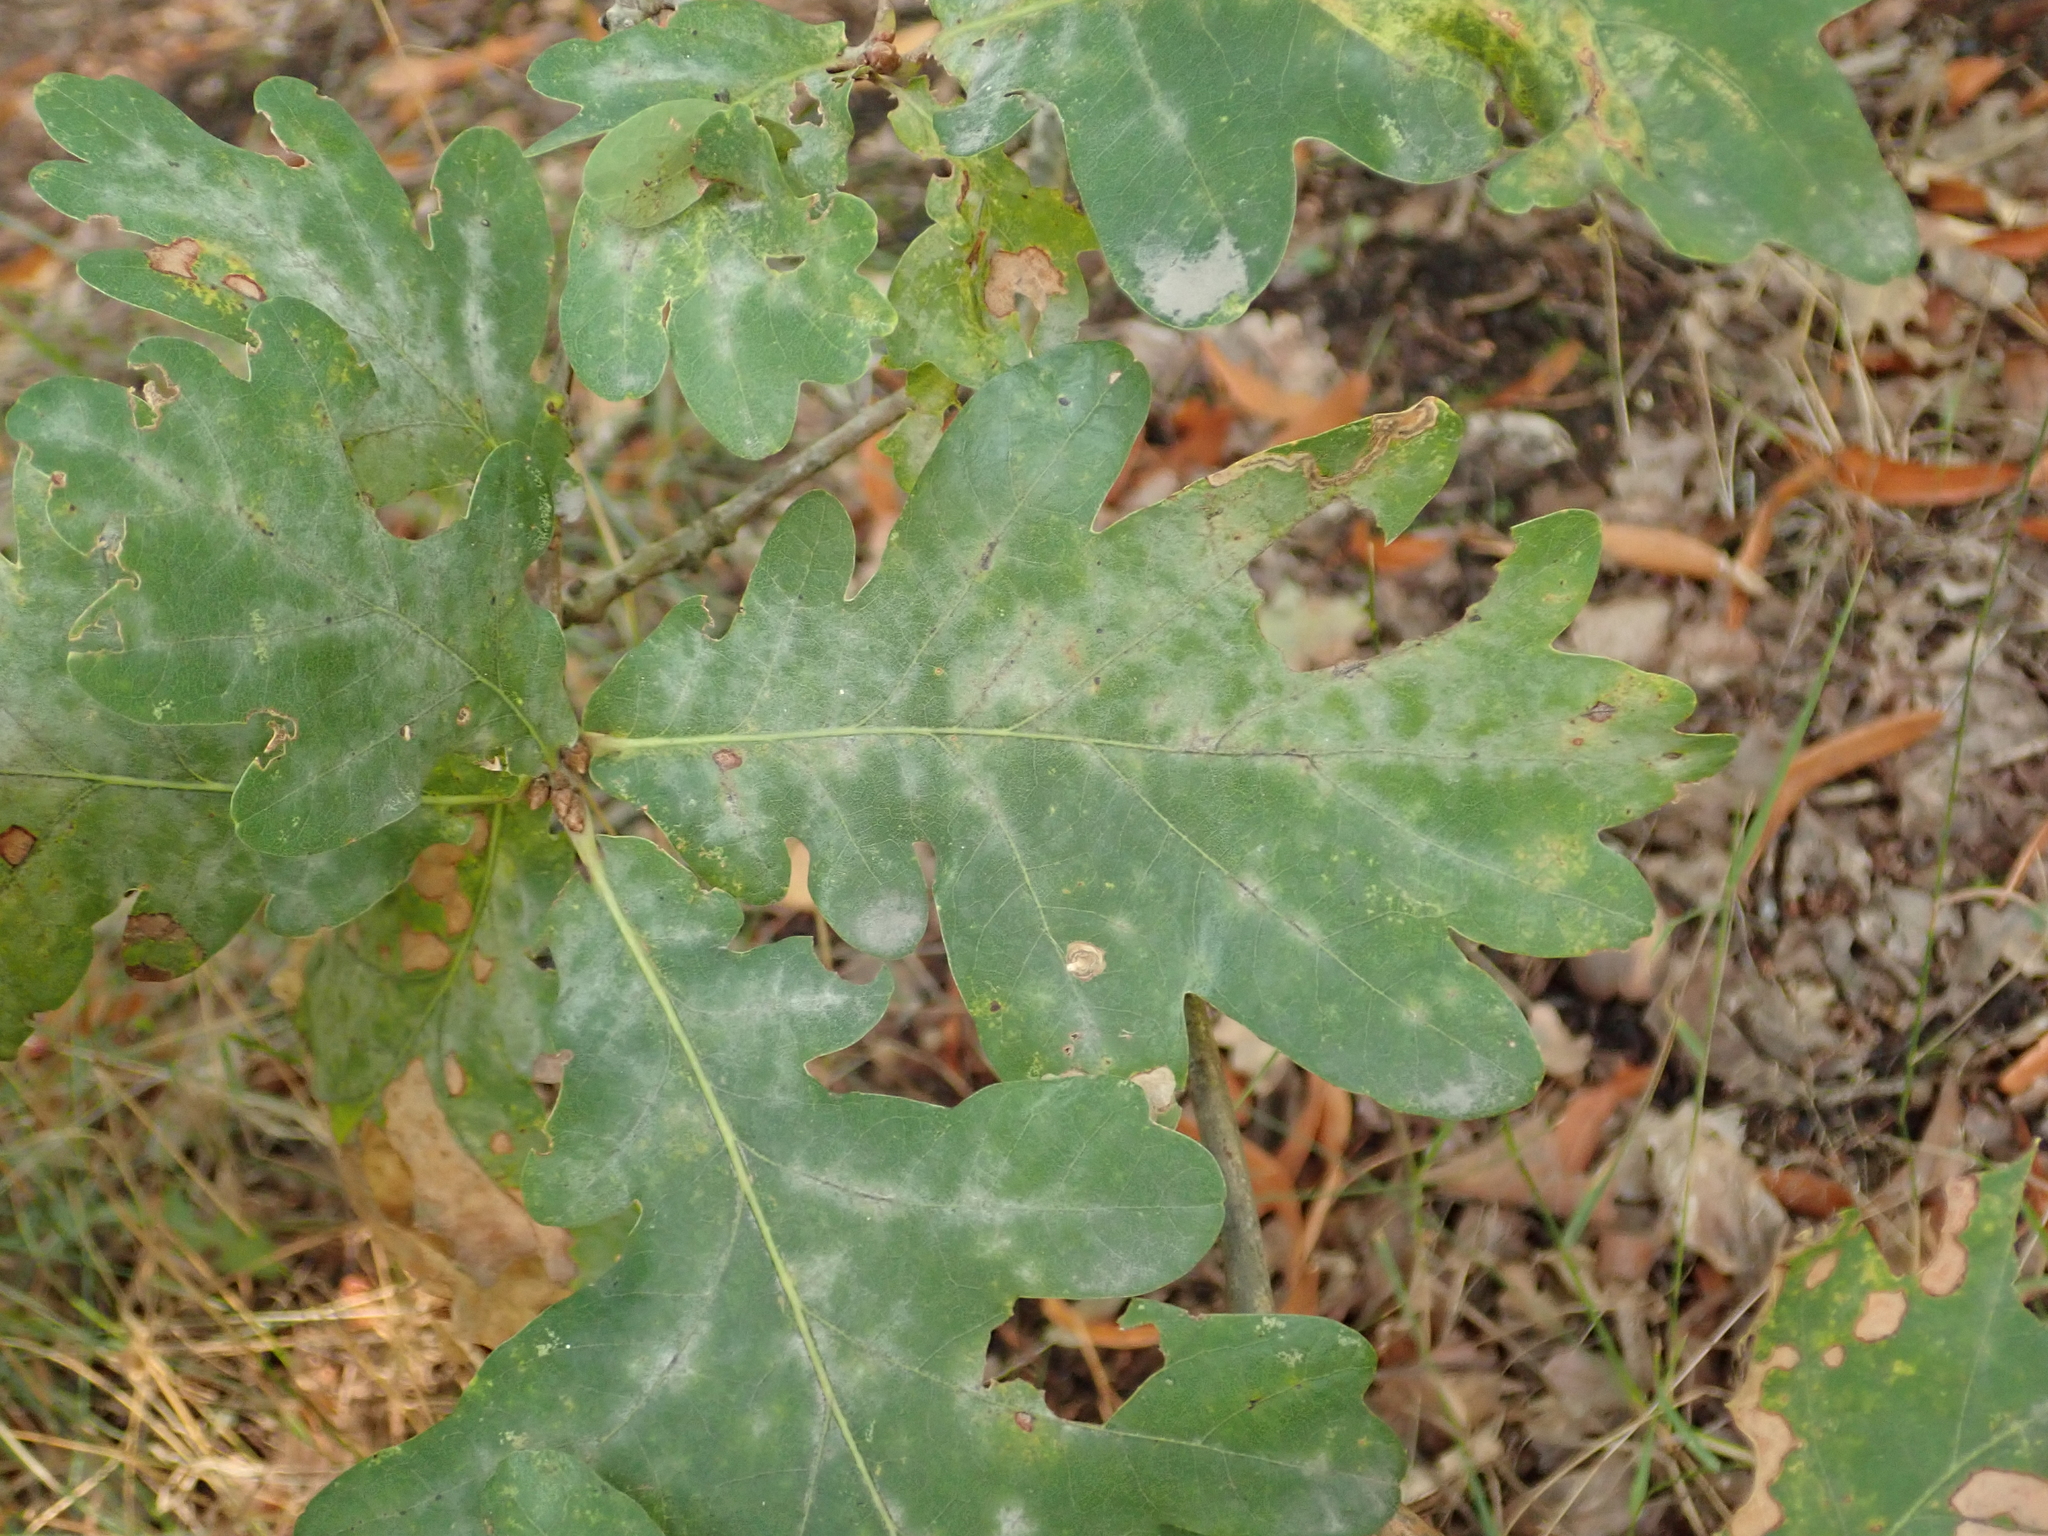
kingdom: Plantae
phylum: Tracheophyta
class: Magnoliopsida
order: Fagales
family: Fagaceae
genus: Quercus
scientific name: Quercus robur
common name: Pedunculate oak
